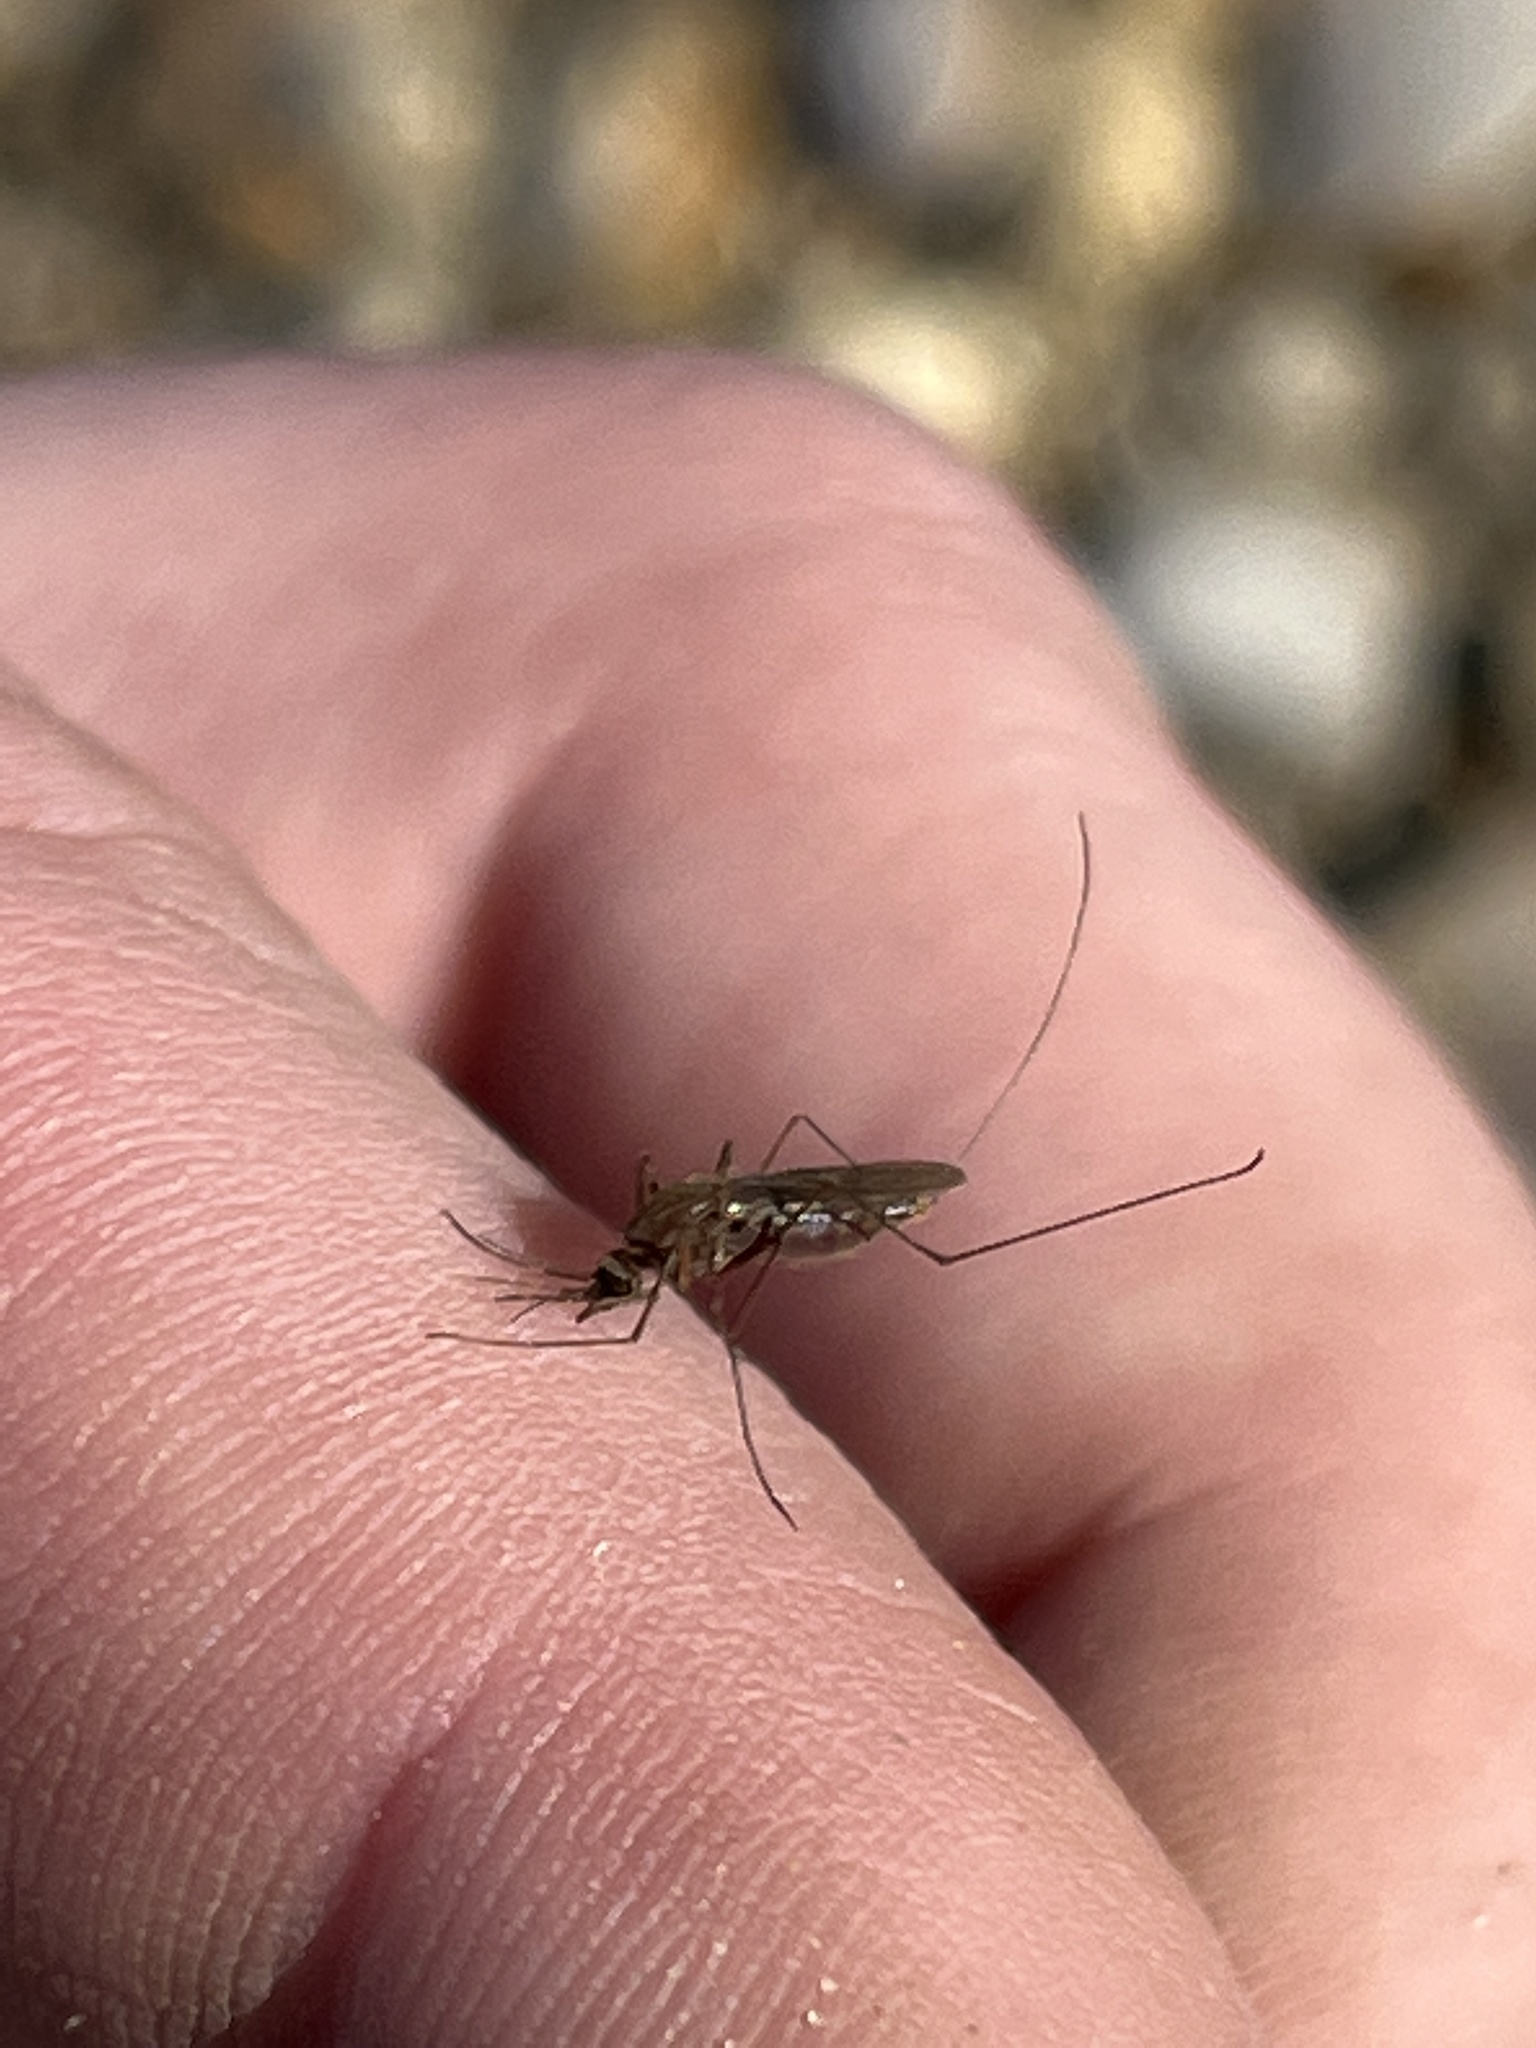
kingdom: Animalia
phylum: Arthropoda
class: Insecta
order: Diptera
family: Culicidae
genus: Anopheles
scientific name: Anopheles atropos
